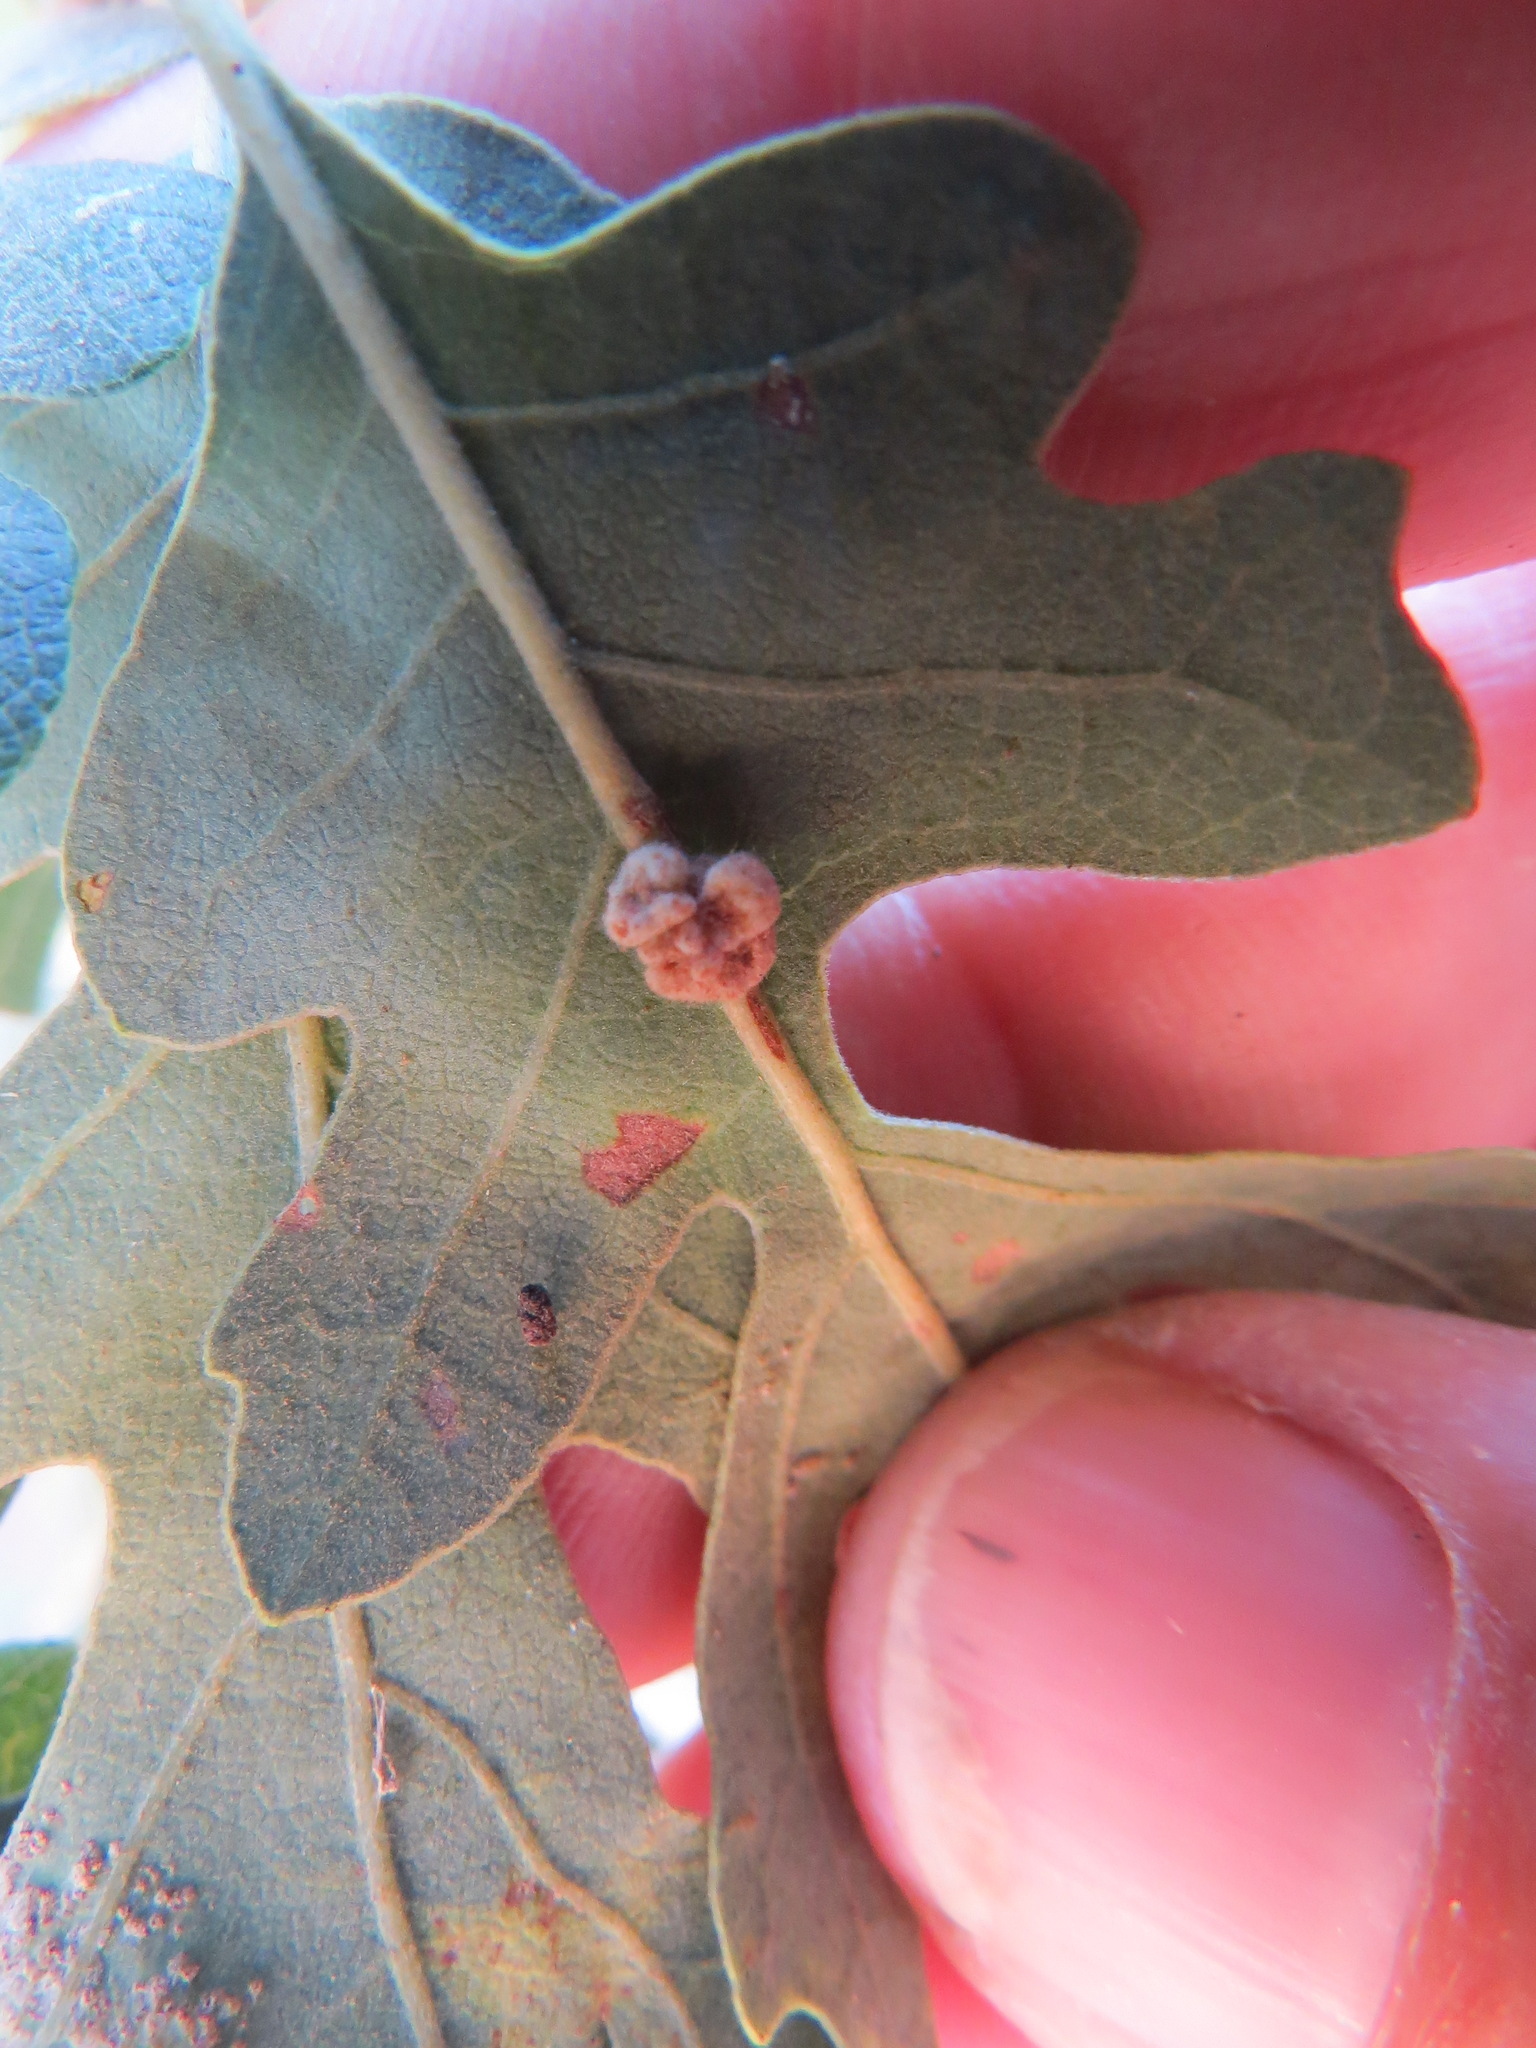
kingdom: Animalia
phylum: Arthropoda
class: Insecta
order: Hymenoptera
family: Cynipidae
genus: Andricus
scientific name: Andricus
